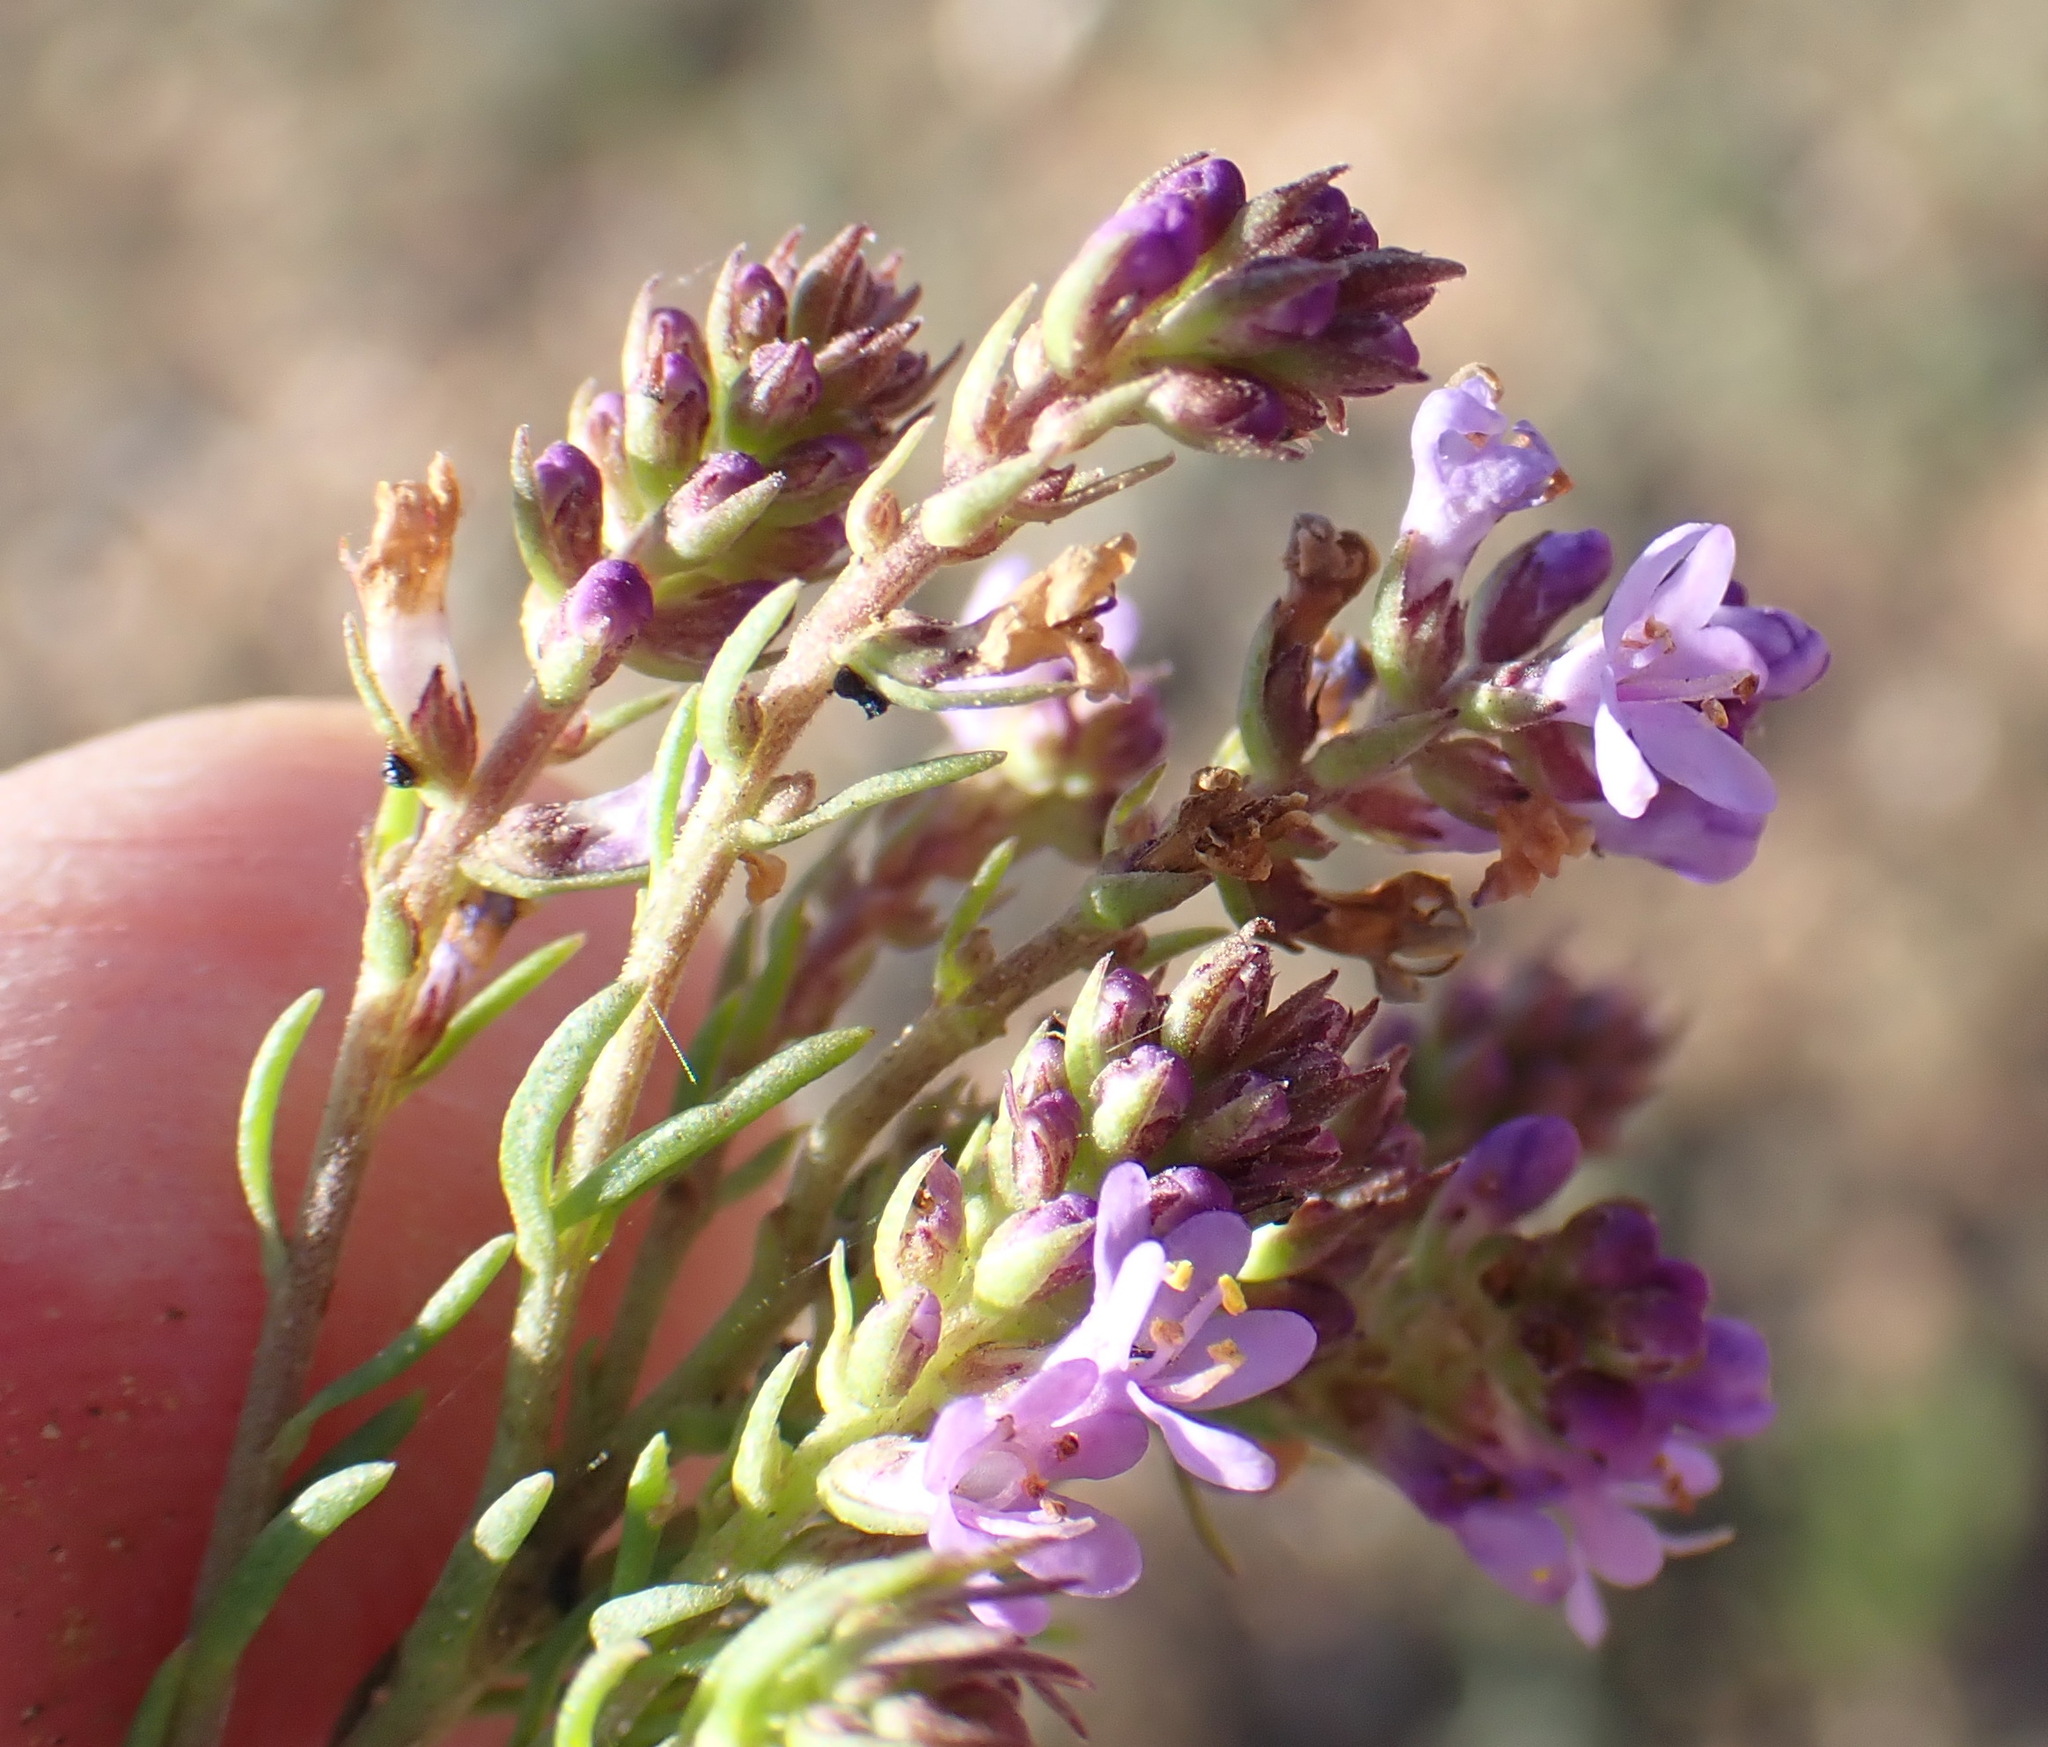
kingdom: Plantae
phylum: Tracheophyta
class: Magnoliopsida
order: Lamiales
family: Scrophulariaceae
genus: Selago
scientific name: Selago burchellii
